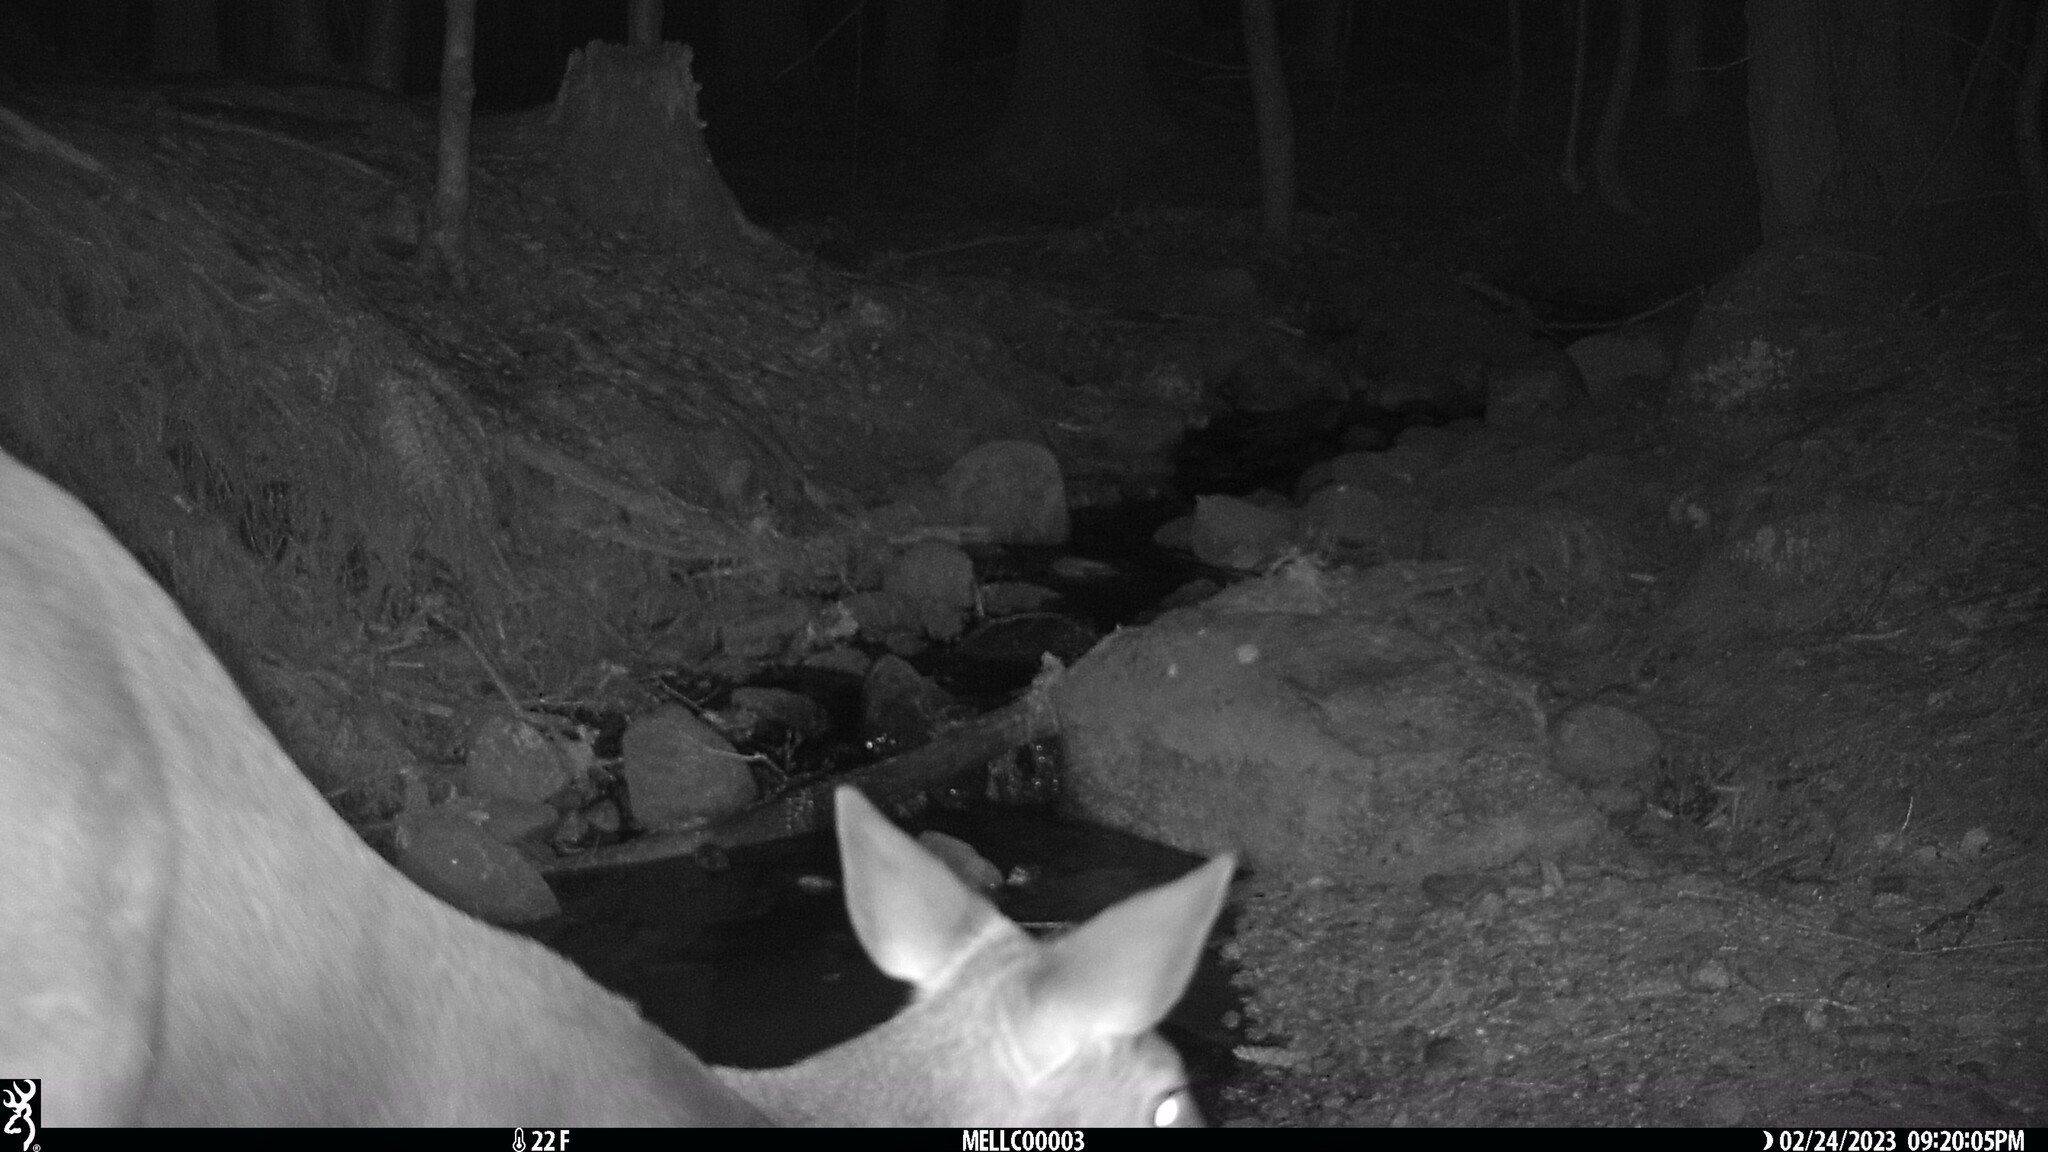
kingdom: Animalia
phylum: Chordata
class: Mammalia
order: Artiodactyla
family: Cervidae
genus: Odocoileus
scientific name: Odocoileus virginianus
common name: White-tailed deer
